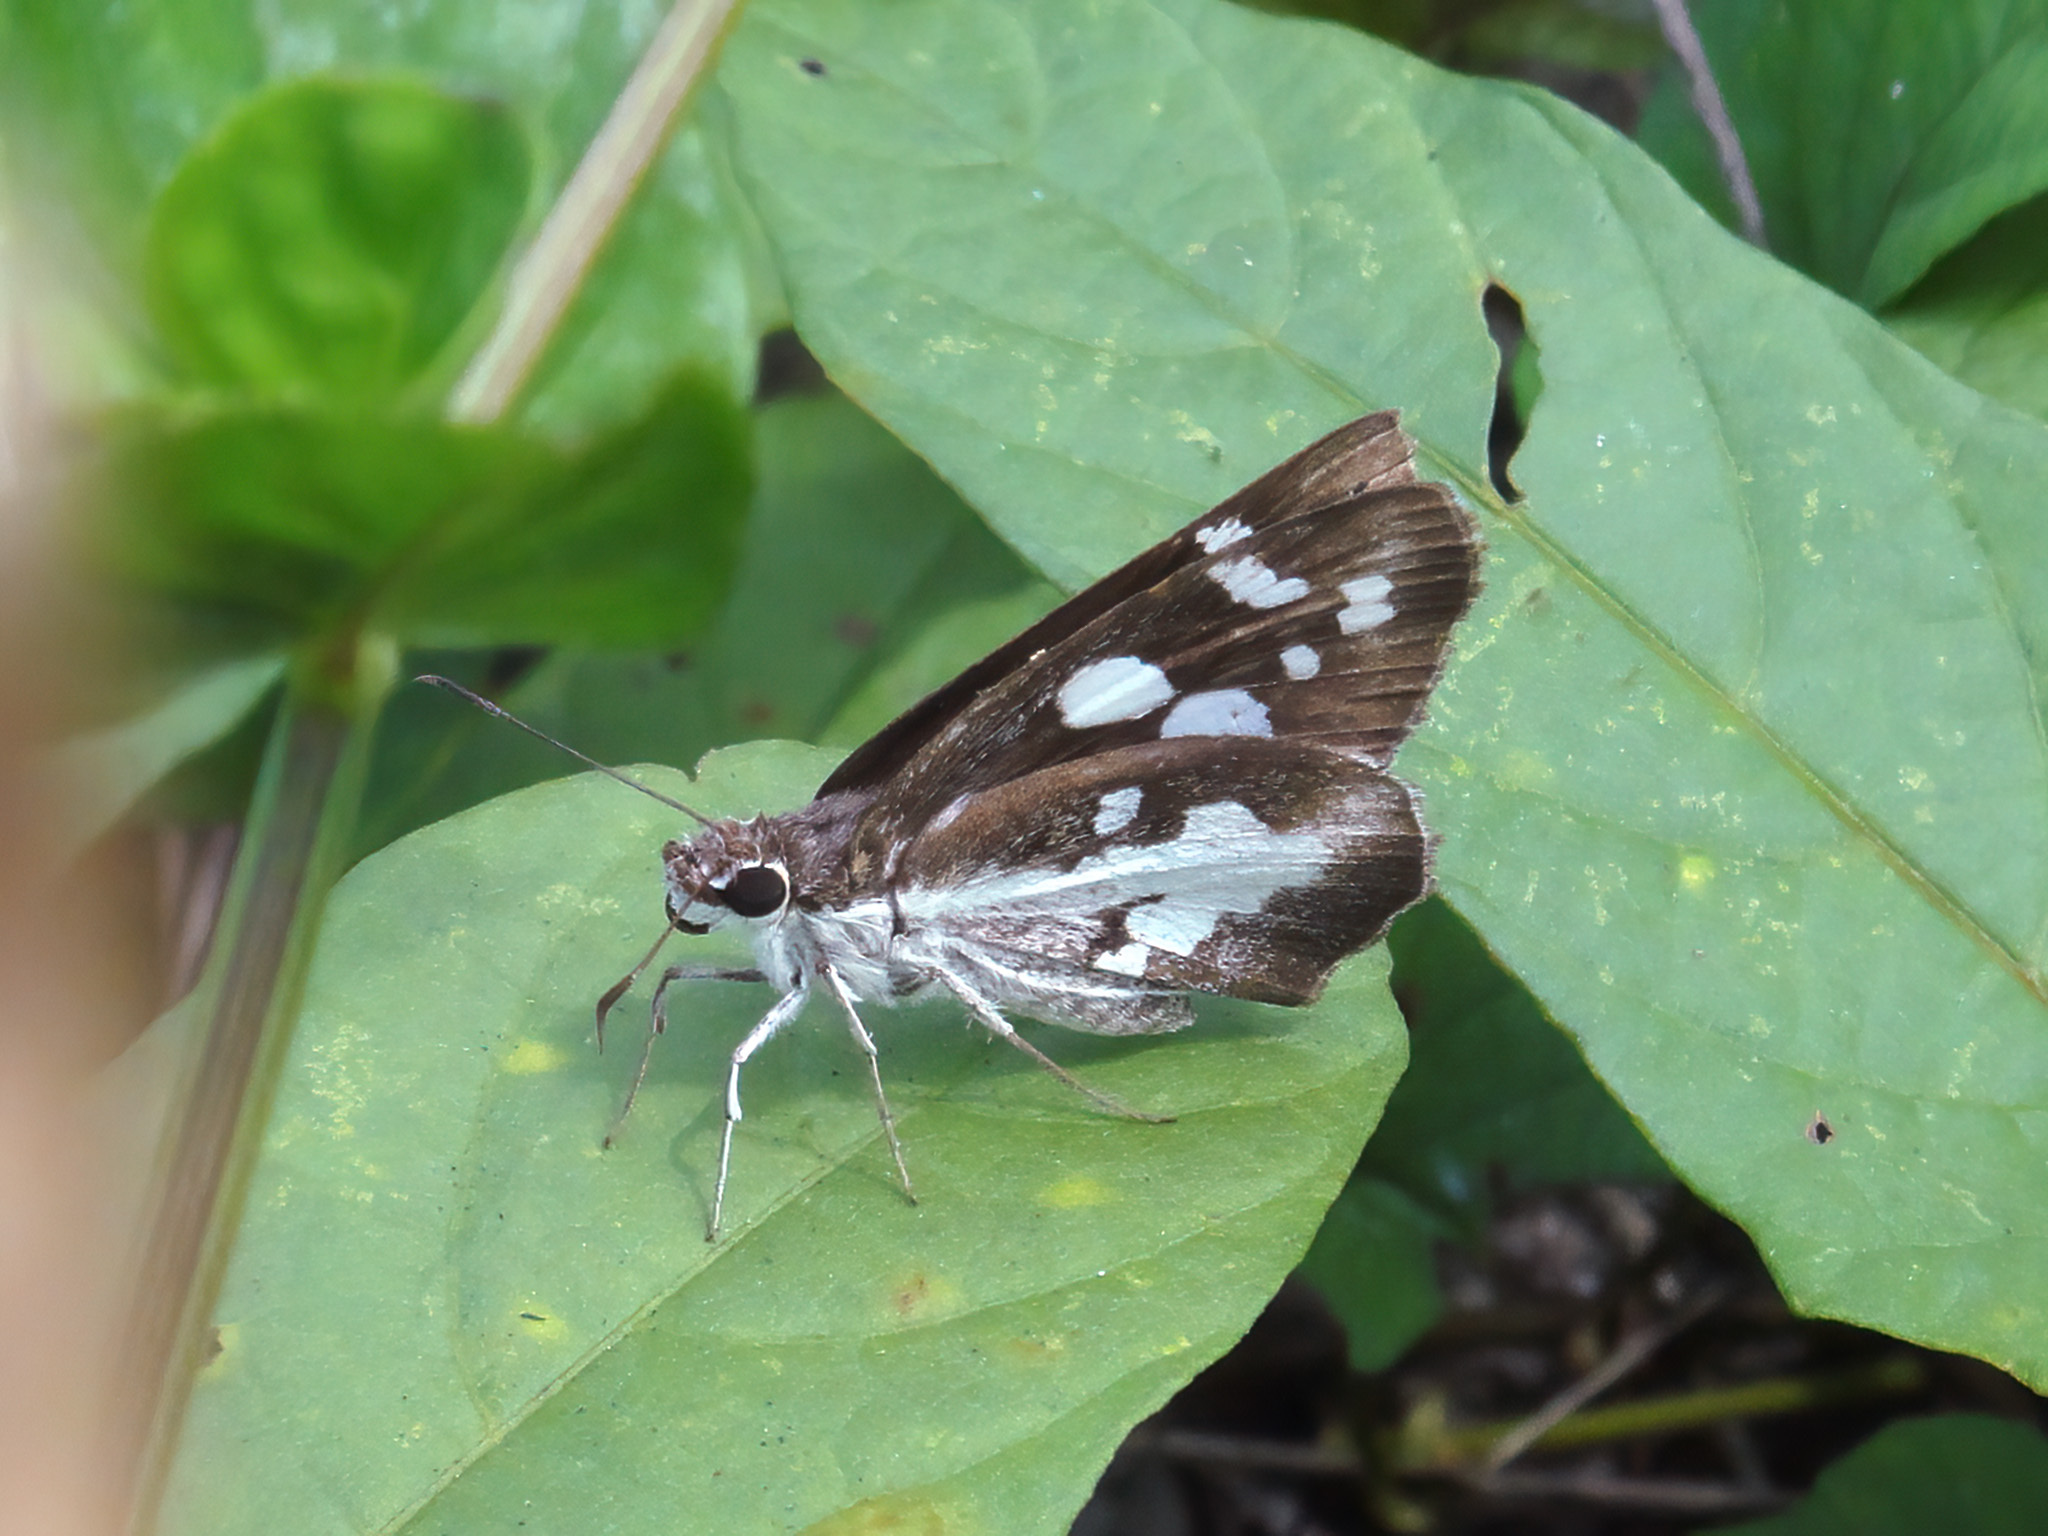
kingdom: Animalia
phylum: Arthropoda
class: Insecta
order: Lepidoptera
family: Hesperiidae
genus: Udaspes
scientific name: Udaspes folus
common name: Grass demon
